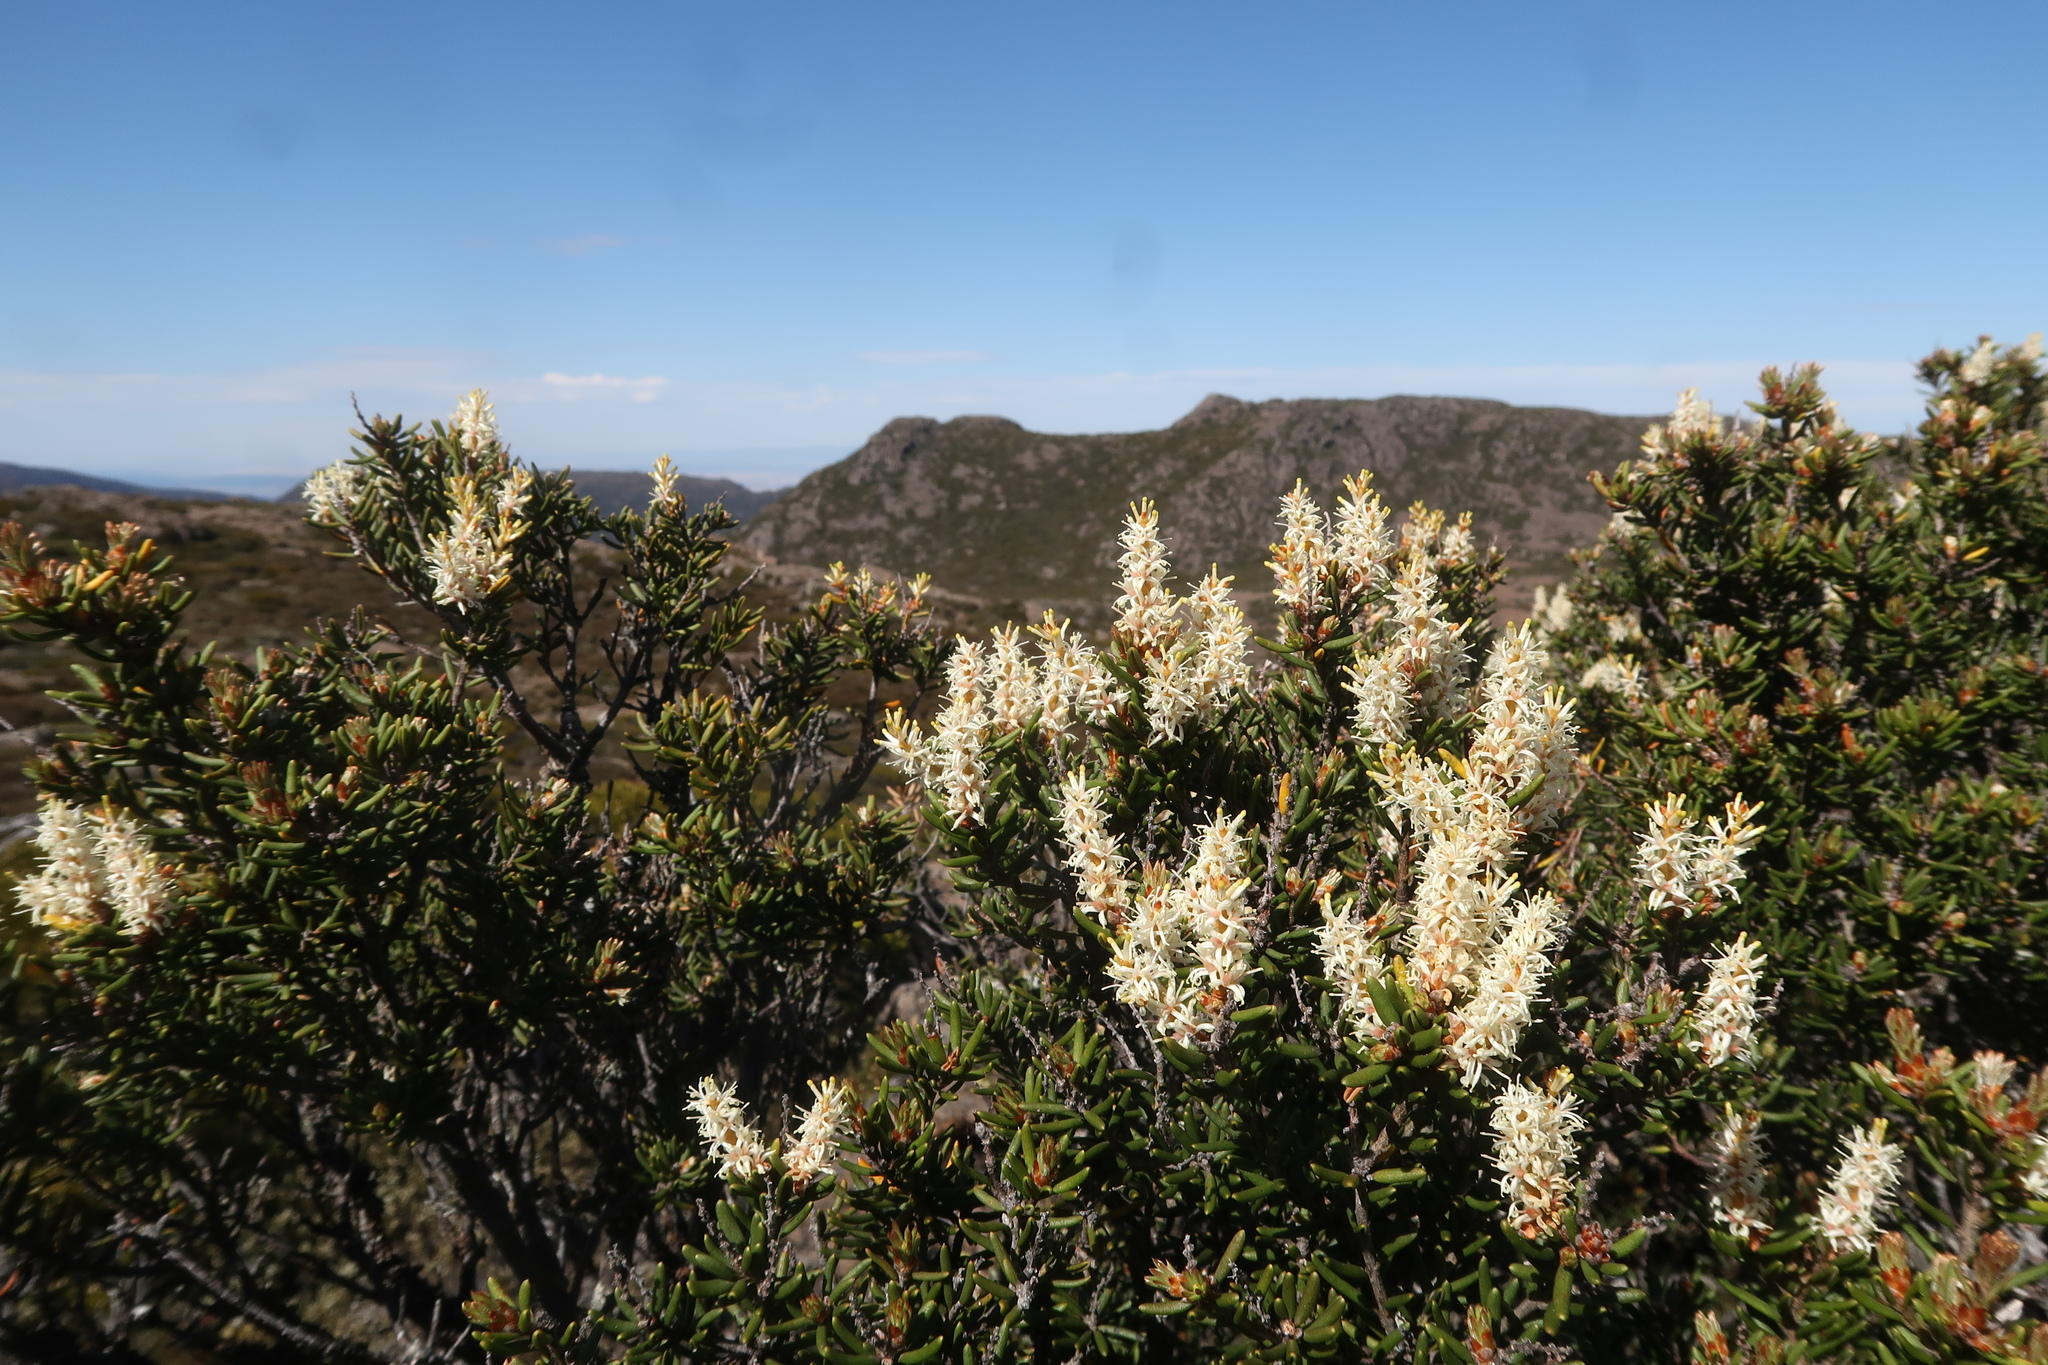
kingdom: Plantae
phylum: Tracheophyta
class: Magnoliopsida
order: Proteales
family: Proteaceae
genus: Orites
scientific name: Orites revolutus
